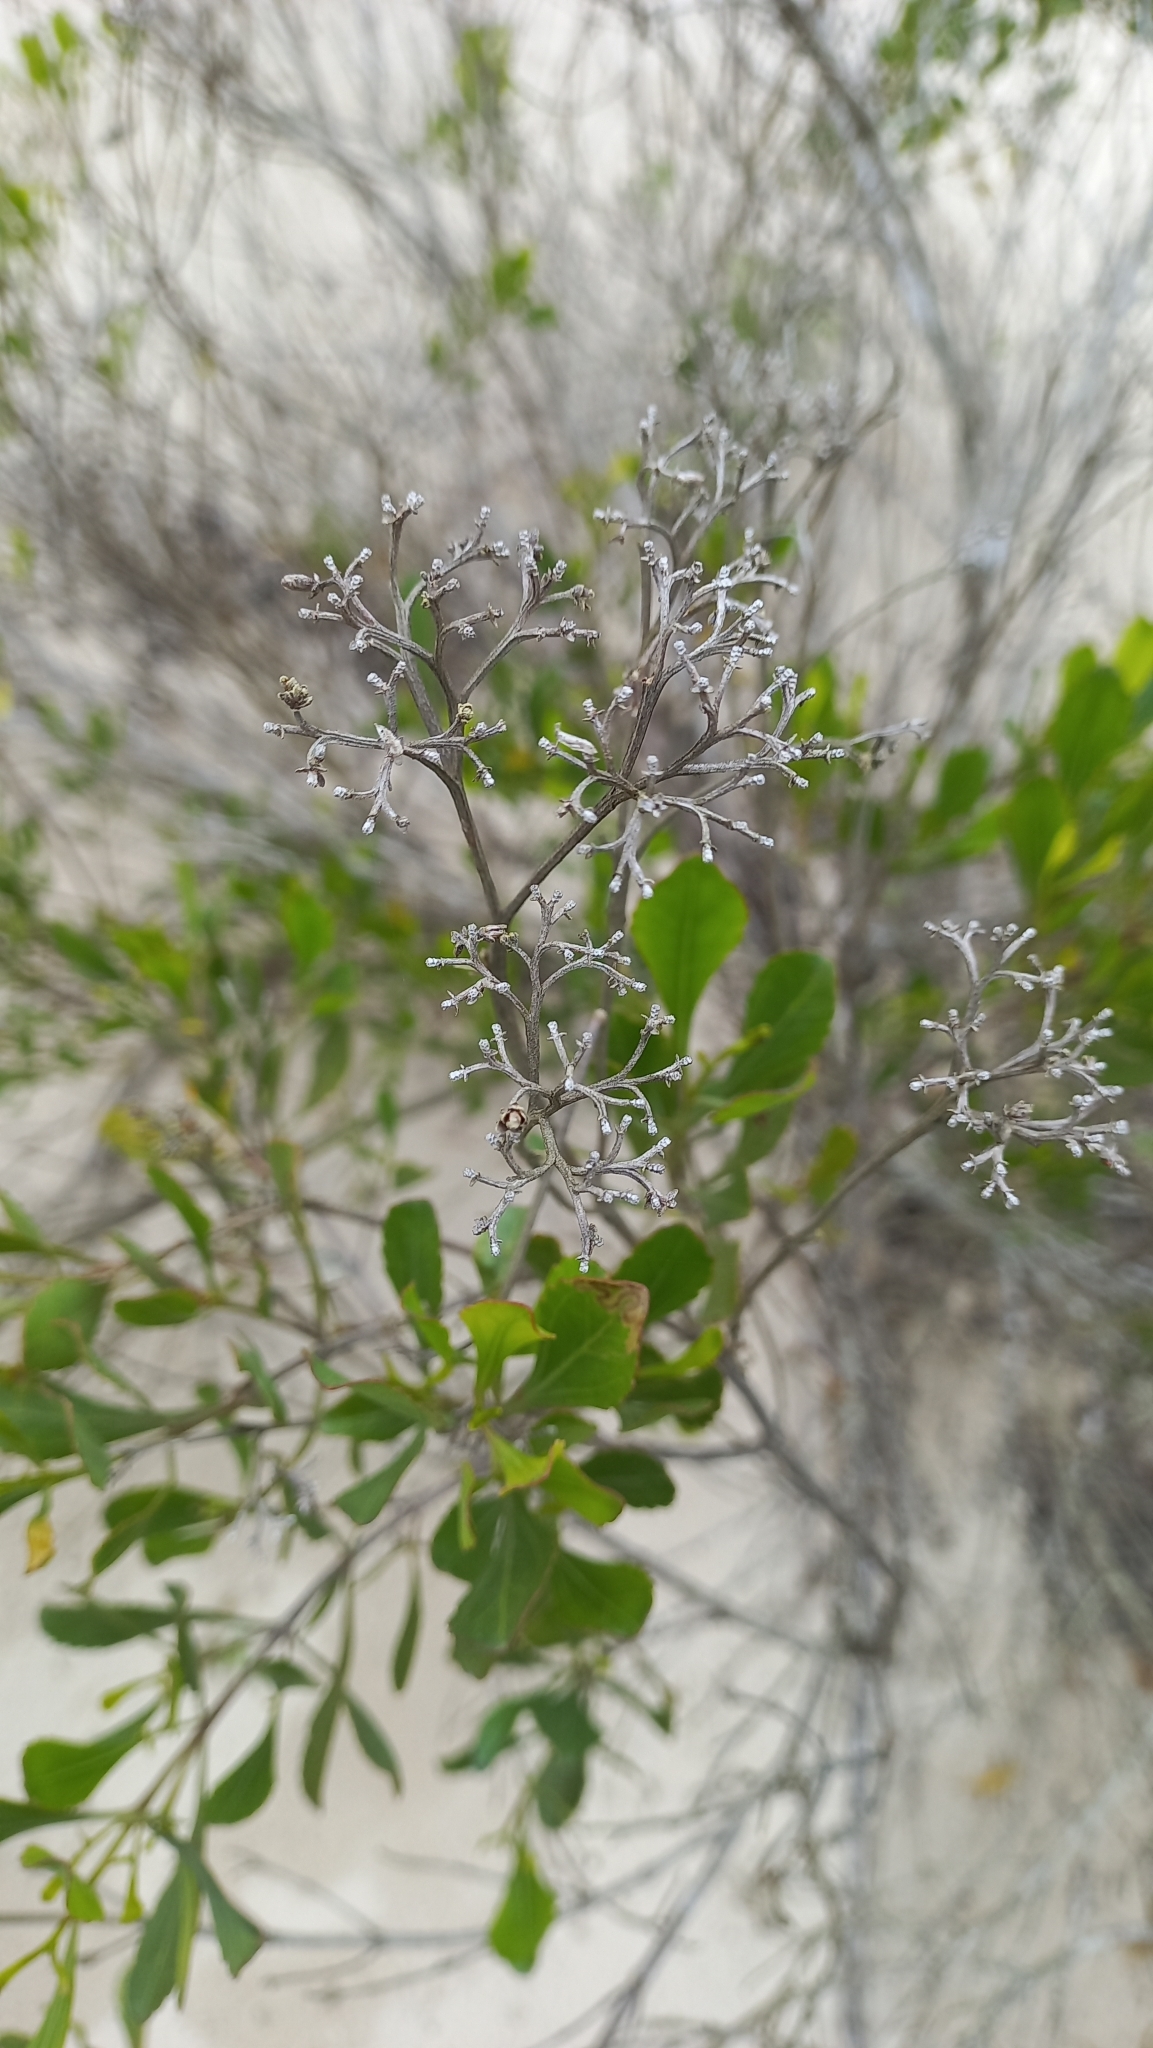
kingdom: Plantae
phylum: Tracheophyta
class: Magnoliopsida
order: Asterales
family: Asteraceae
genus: Symphyopappus
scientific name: Symphyopappus casarettoi
